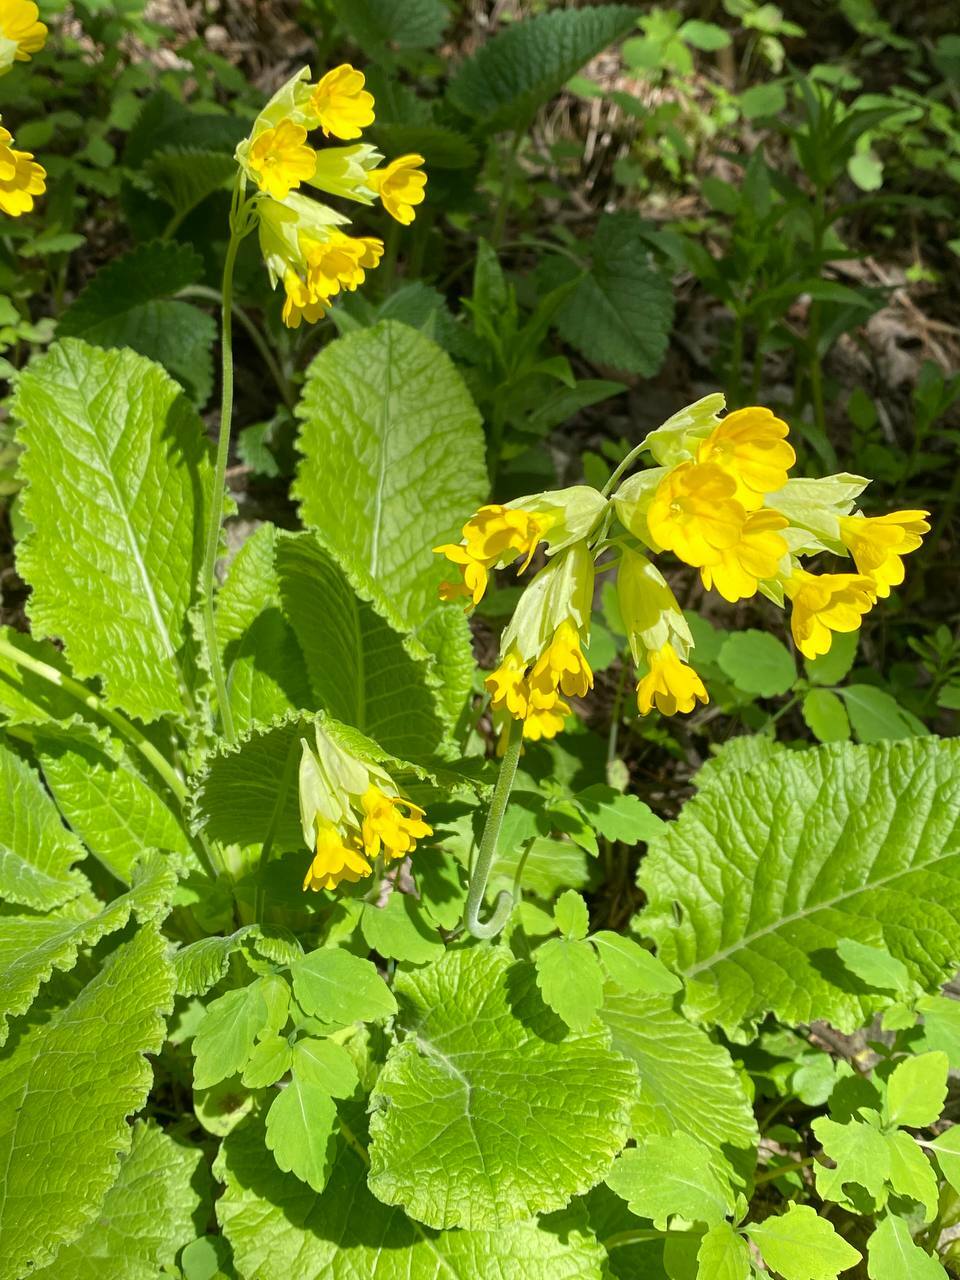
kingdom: Plantae
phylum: Tracheophyta
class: Magnoliopsida
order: Ericales
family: Primulaceae
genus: Primula
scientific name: Primula veris
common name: Cowslip
